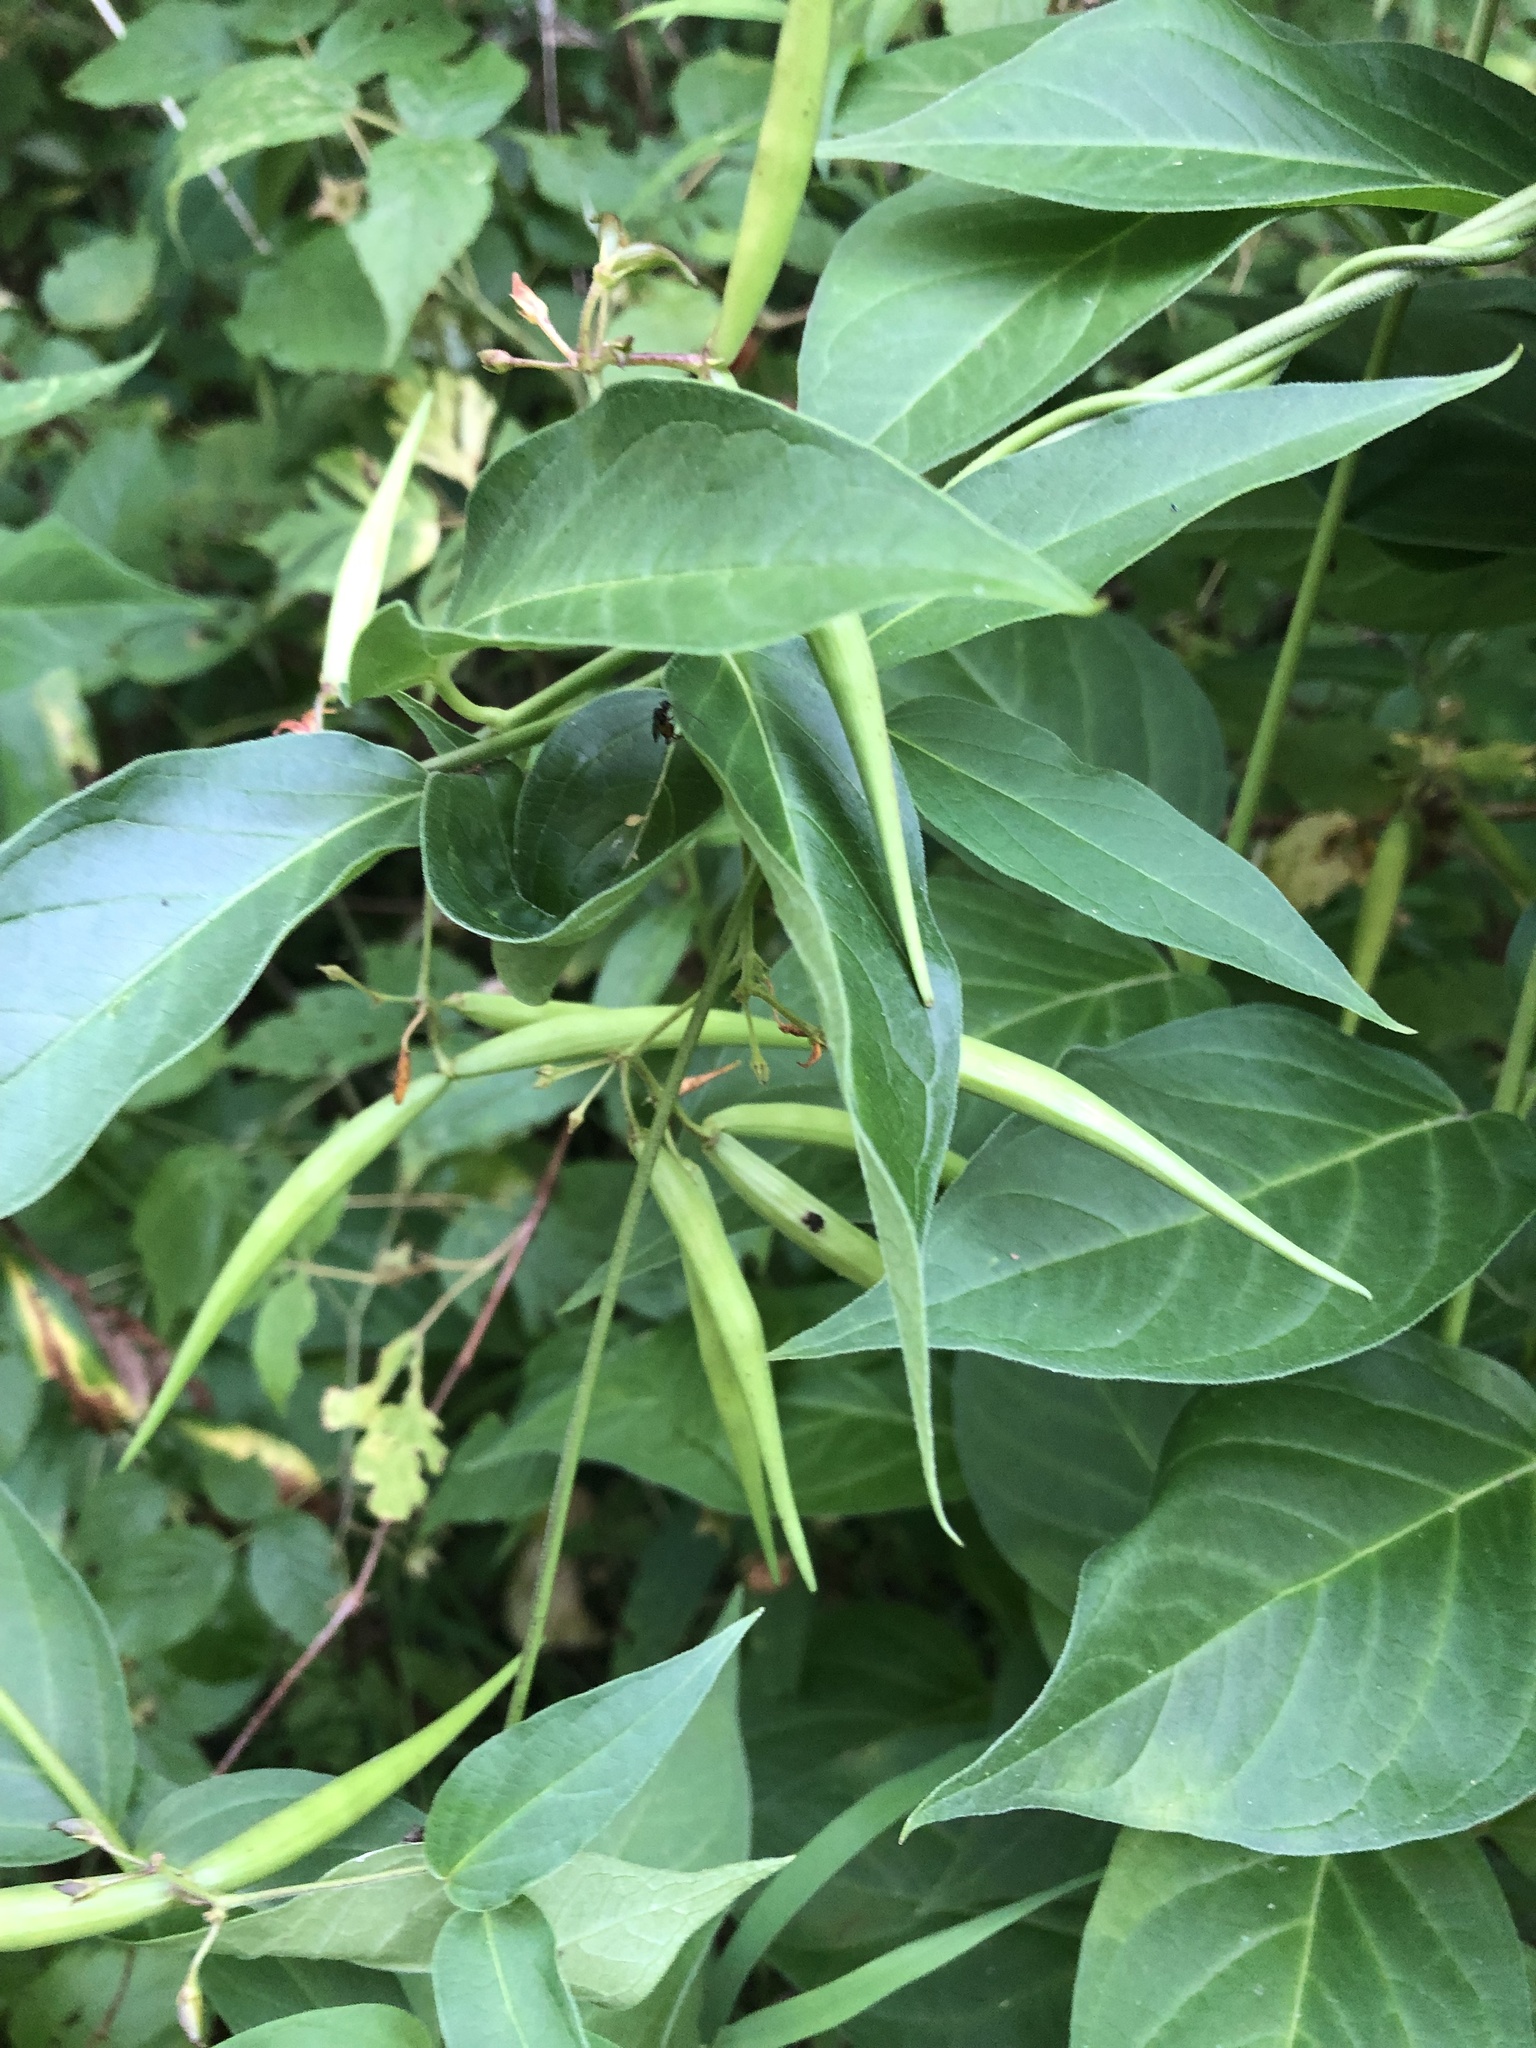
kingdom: Plantae
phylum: Tracheophyta
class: Magnoliopsida
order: Gentianales
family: Apocynaceae
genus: Vincetoxicum
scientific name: Vincetoxicum rossicum
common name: Dog-strangling vine
